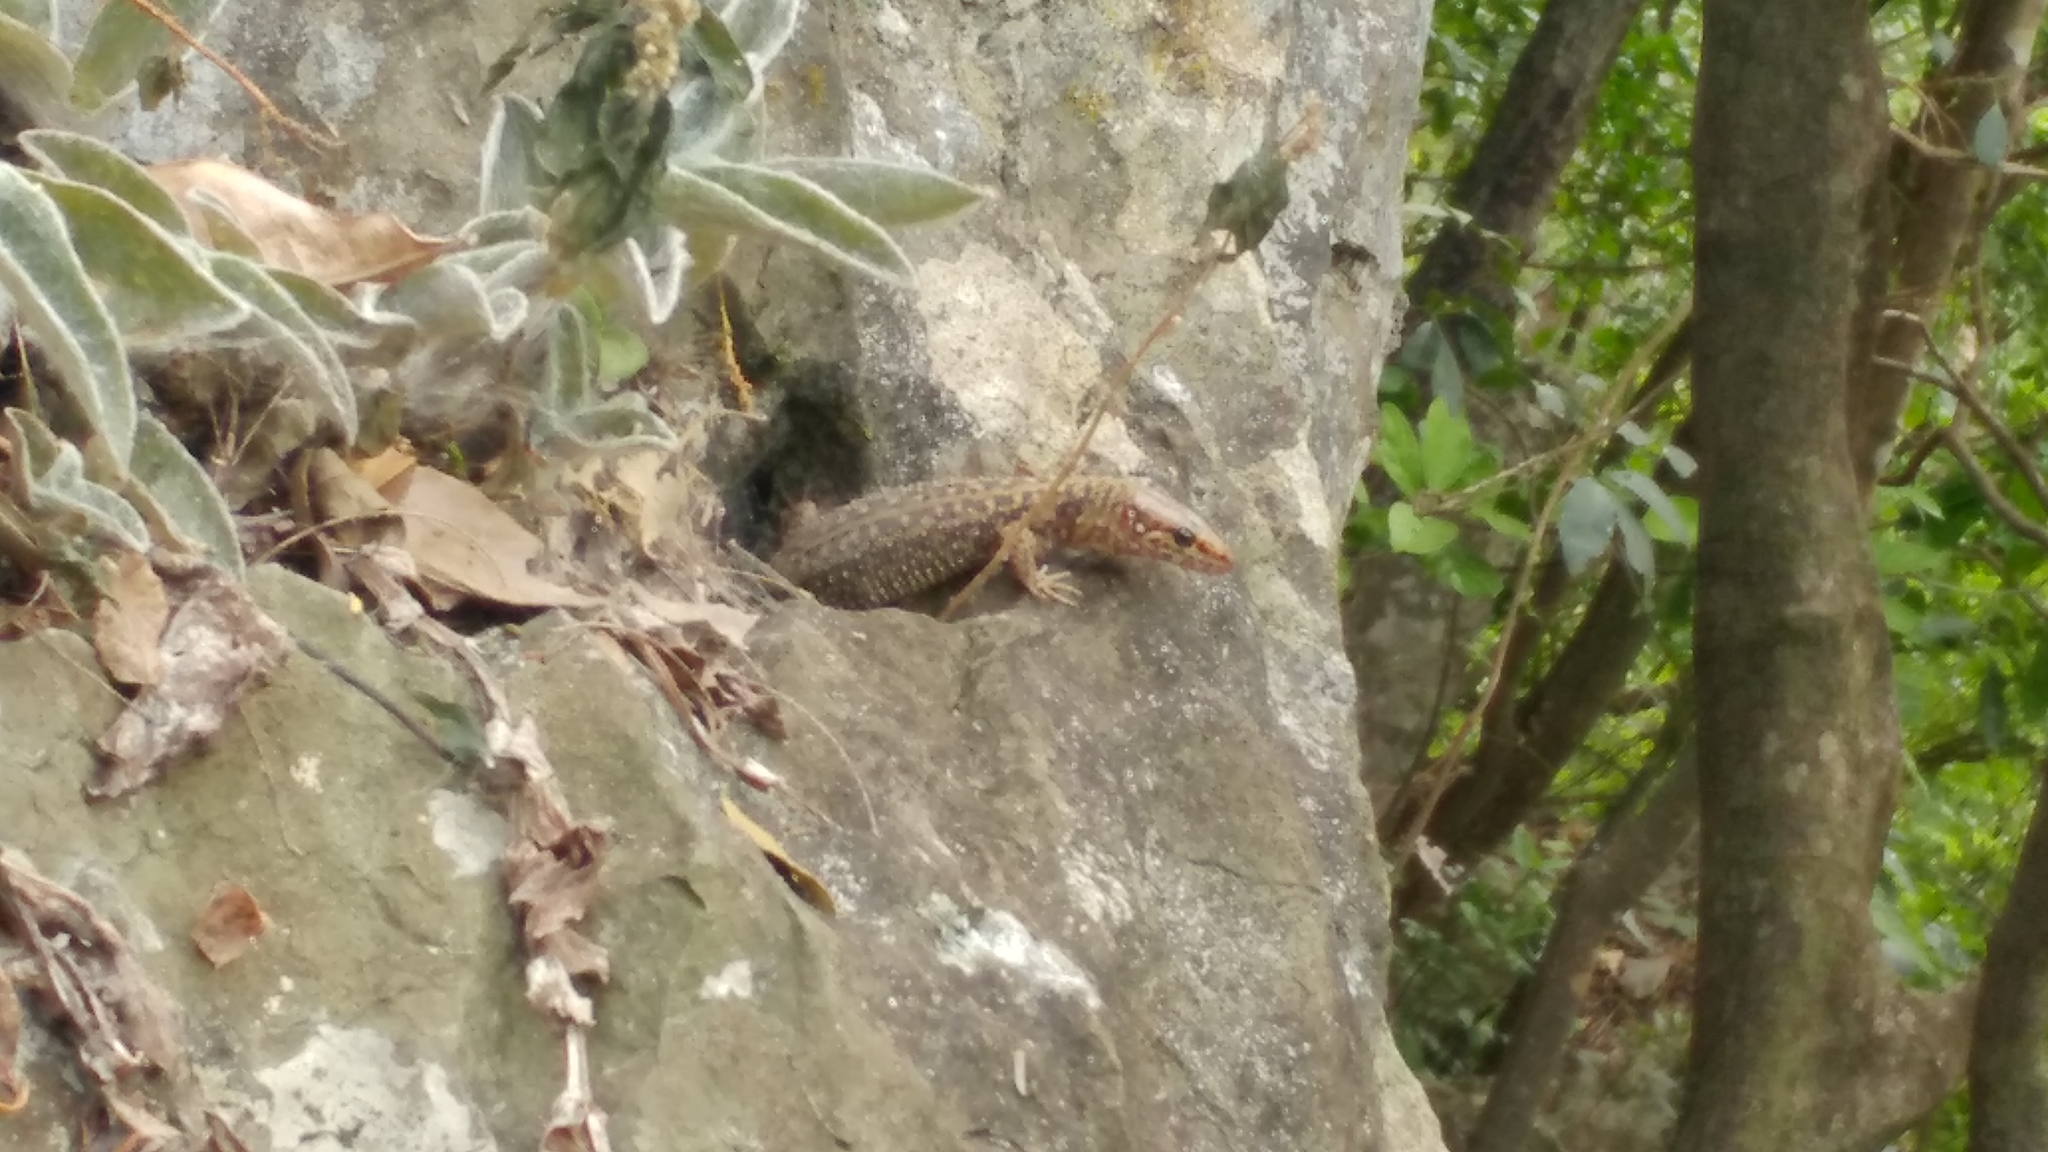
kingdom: Animalia
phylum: Chordata
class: Squamata
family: Xantusiidae
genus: Lepidophyma
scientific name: Lepidophyma sylvaticum
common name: Madrean tropical night lizard
